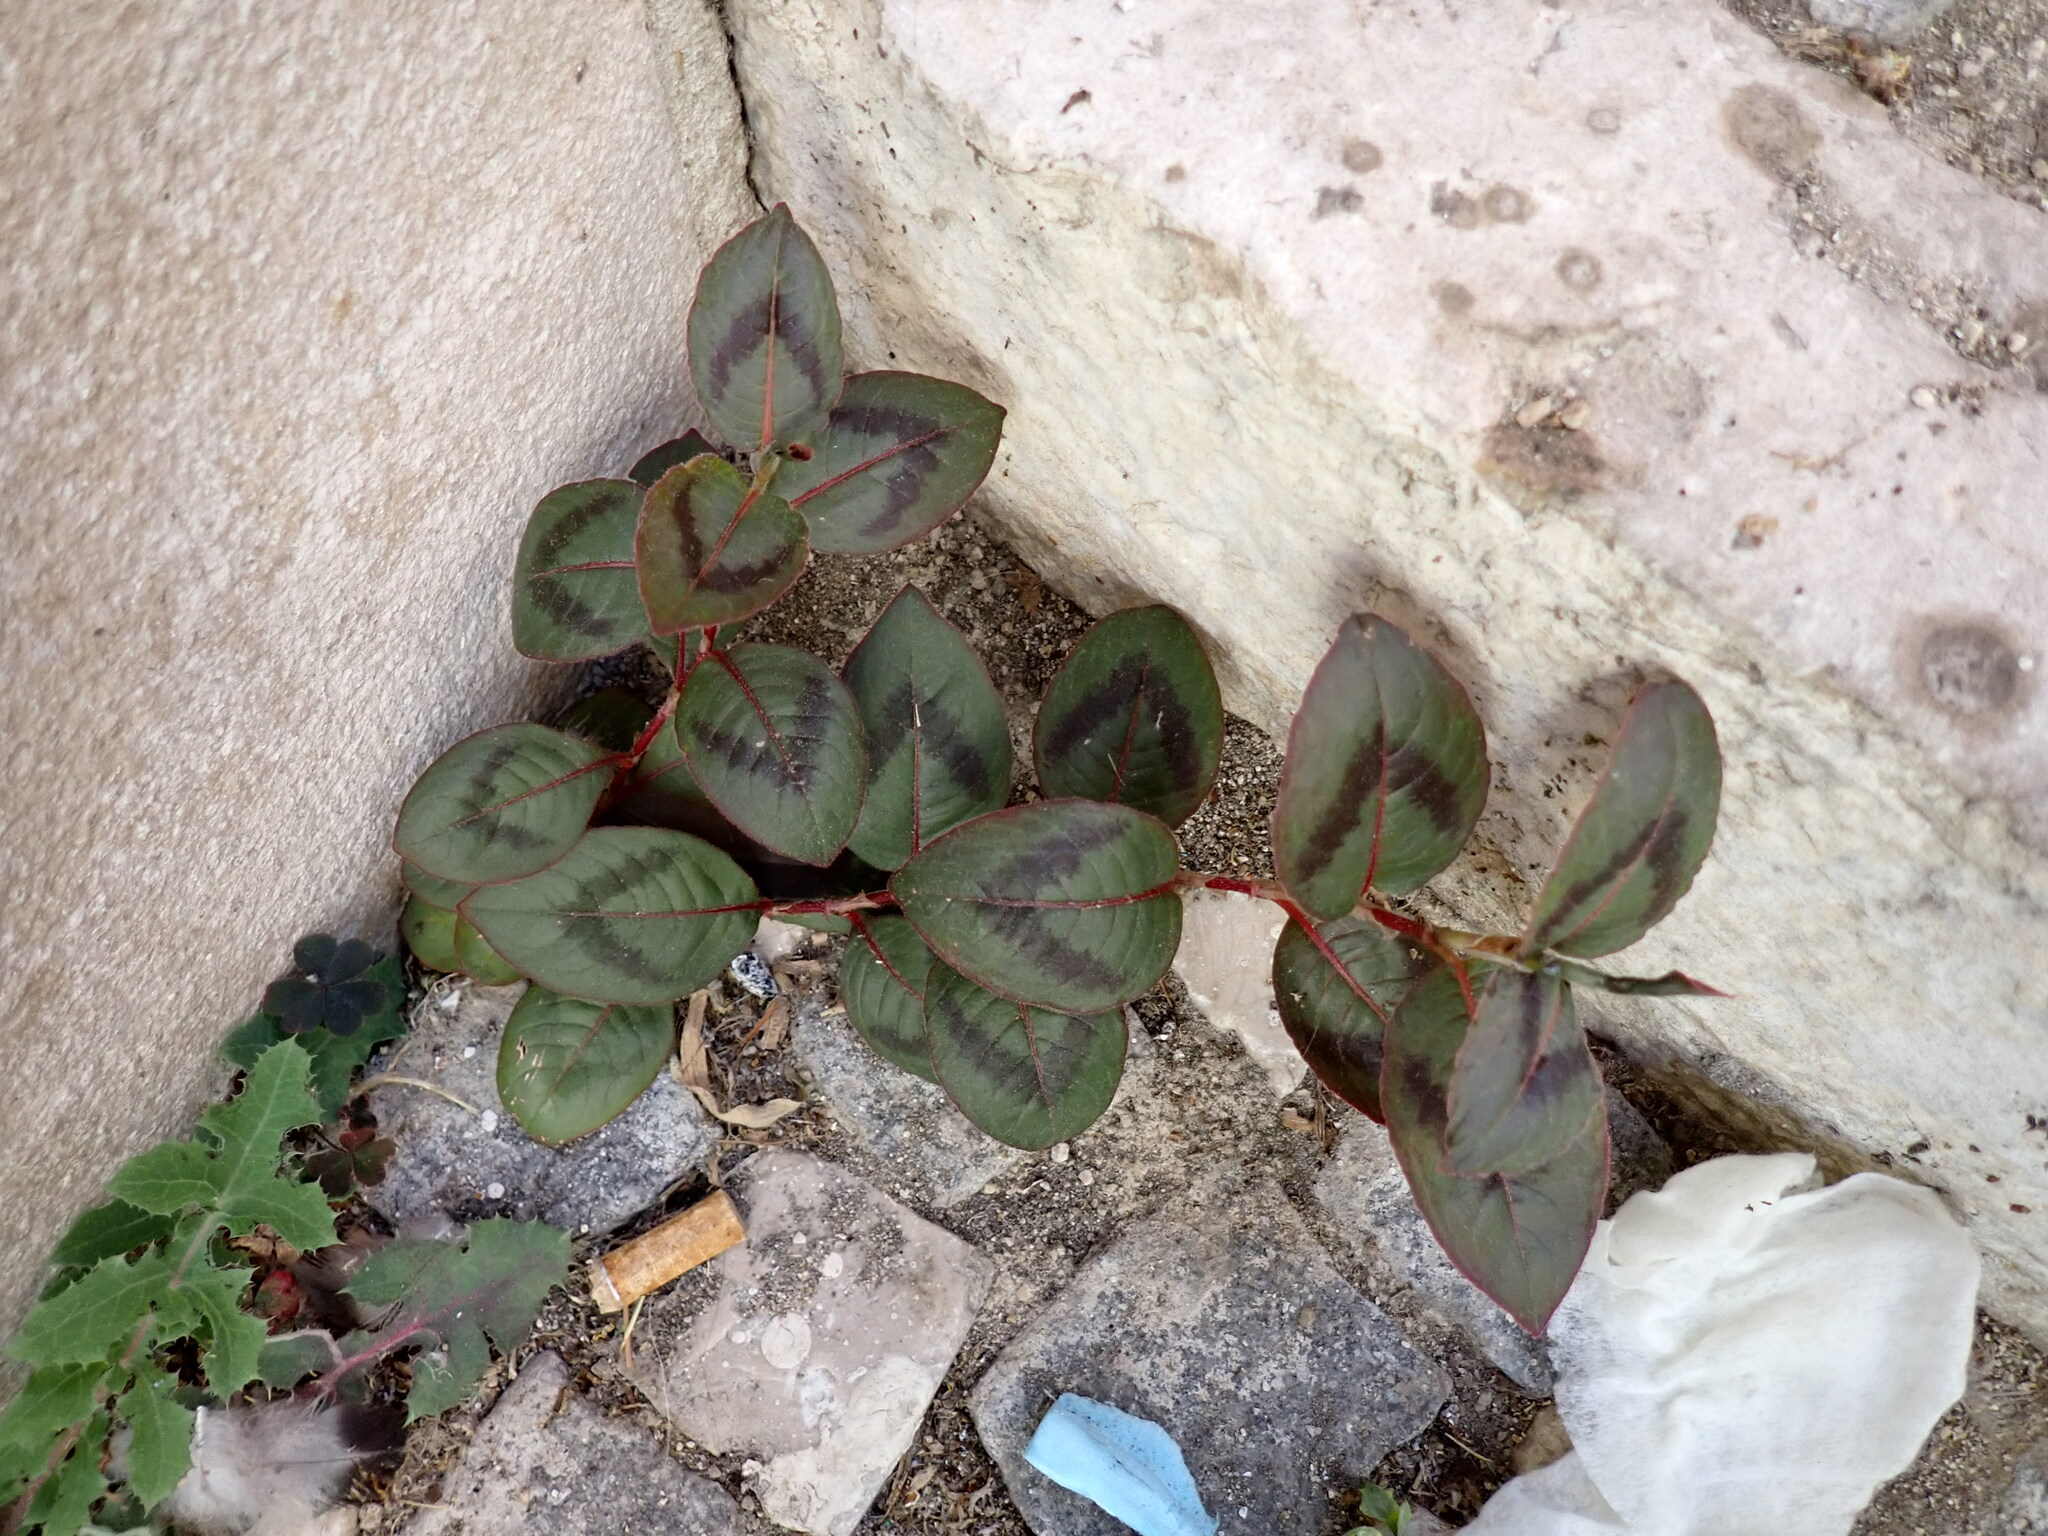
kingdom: Plantae
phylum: Tracheophyta
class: Magnoliopsida
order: Caryophyllales
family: Polygonaceae
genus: Persicaria
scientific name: Persicaria capitata
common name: Pinkhead smartweed
